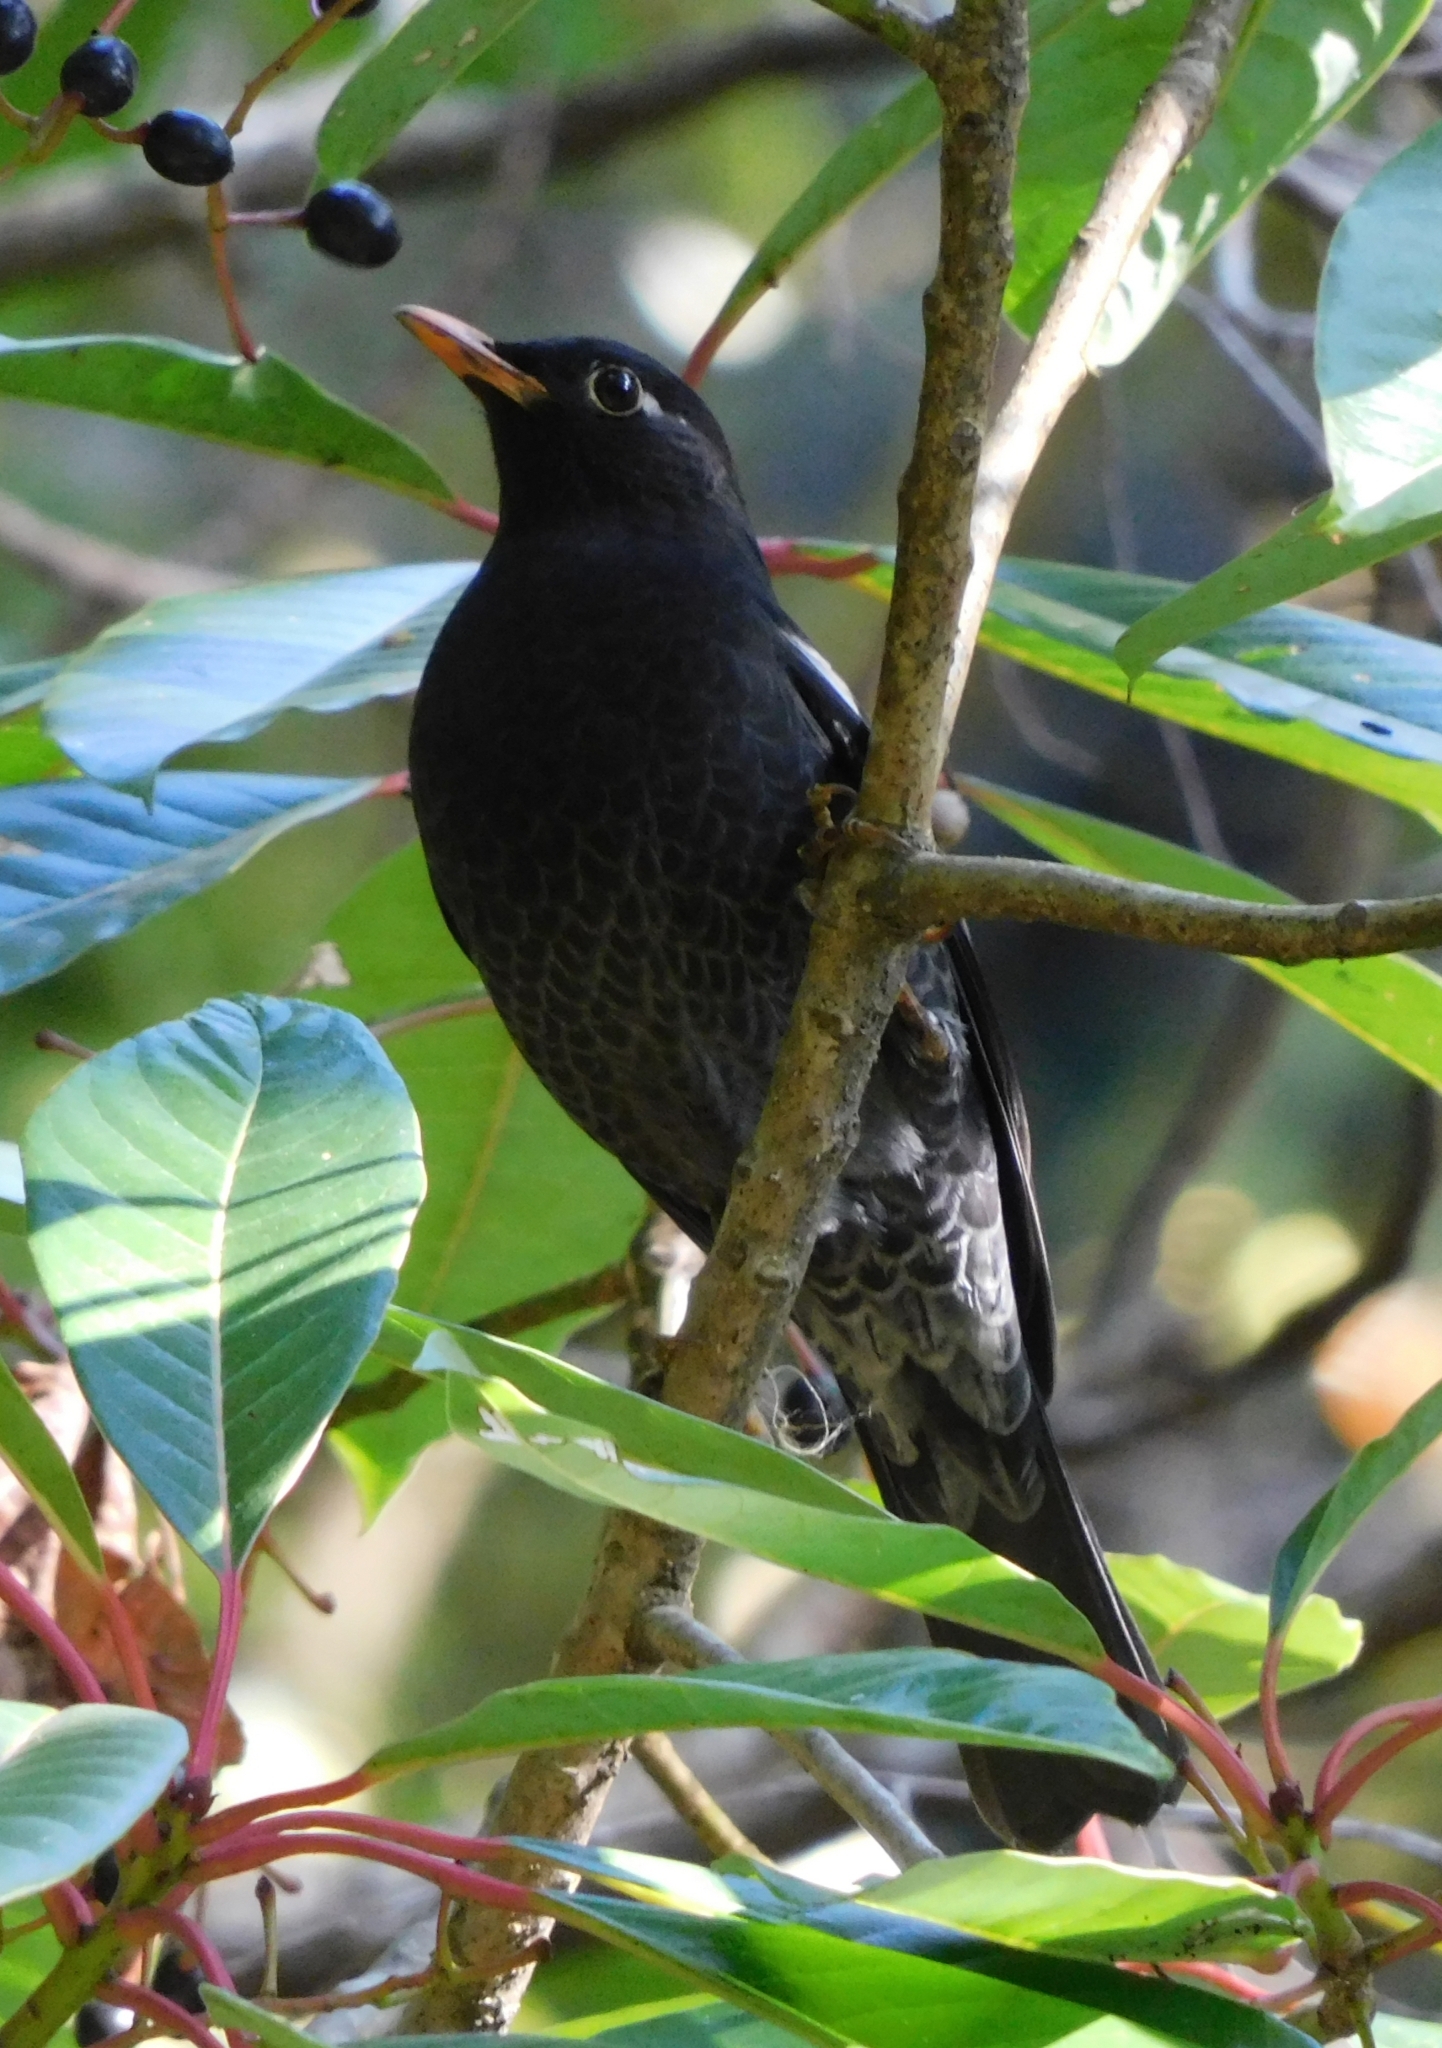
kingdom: Animalia
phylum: Chordata
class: Aves
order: Passeriformes
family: Turdidae
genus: Turdus
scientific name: Turdus simillimus
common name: Indian blackbird
